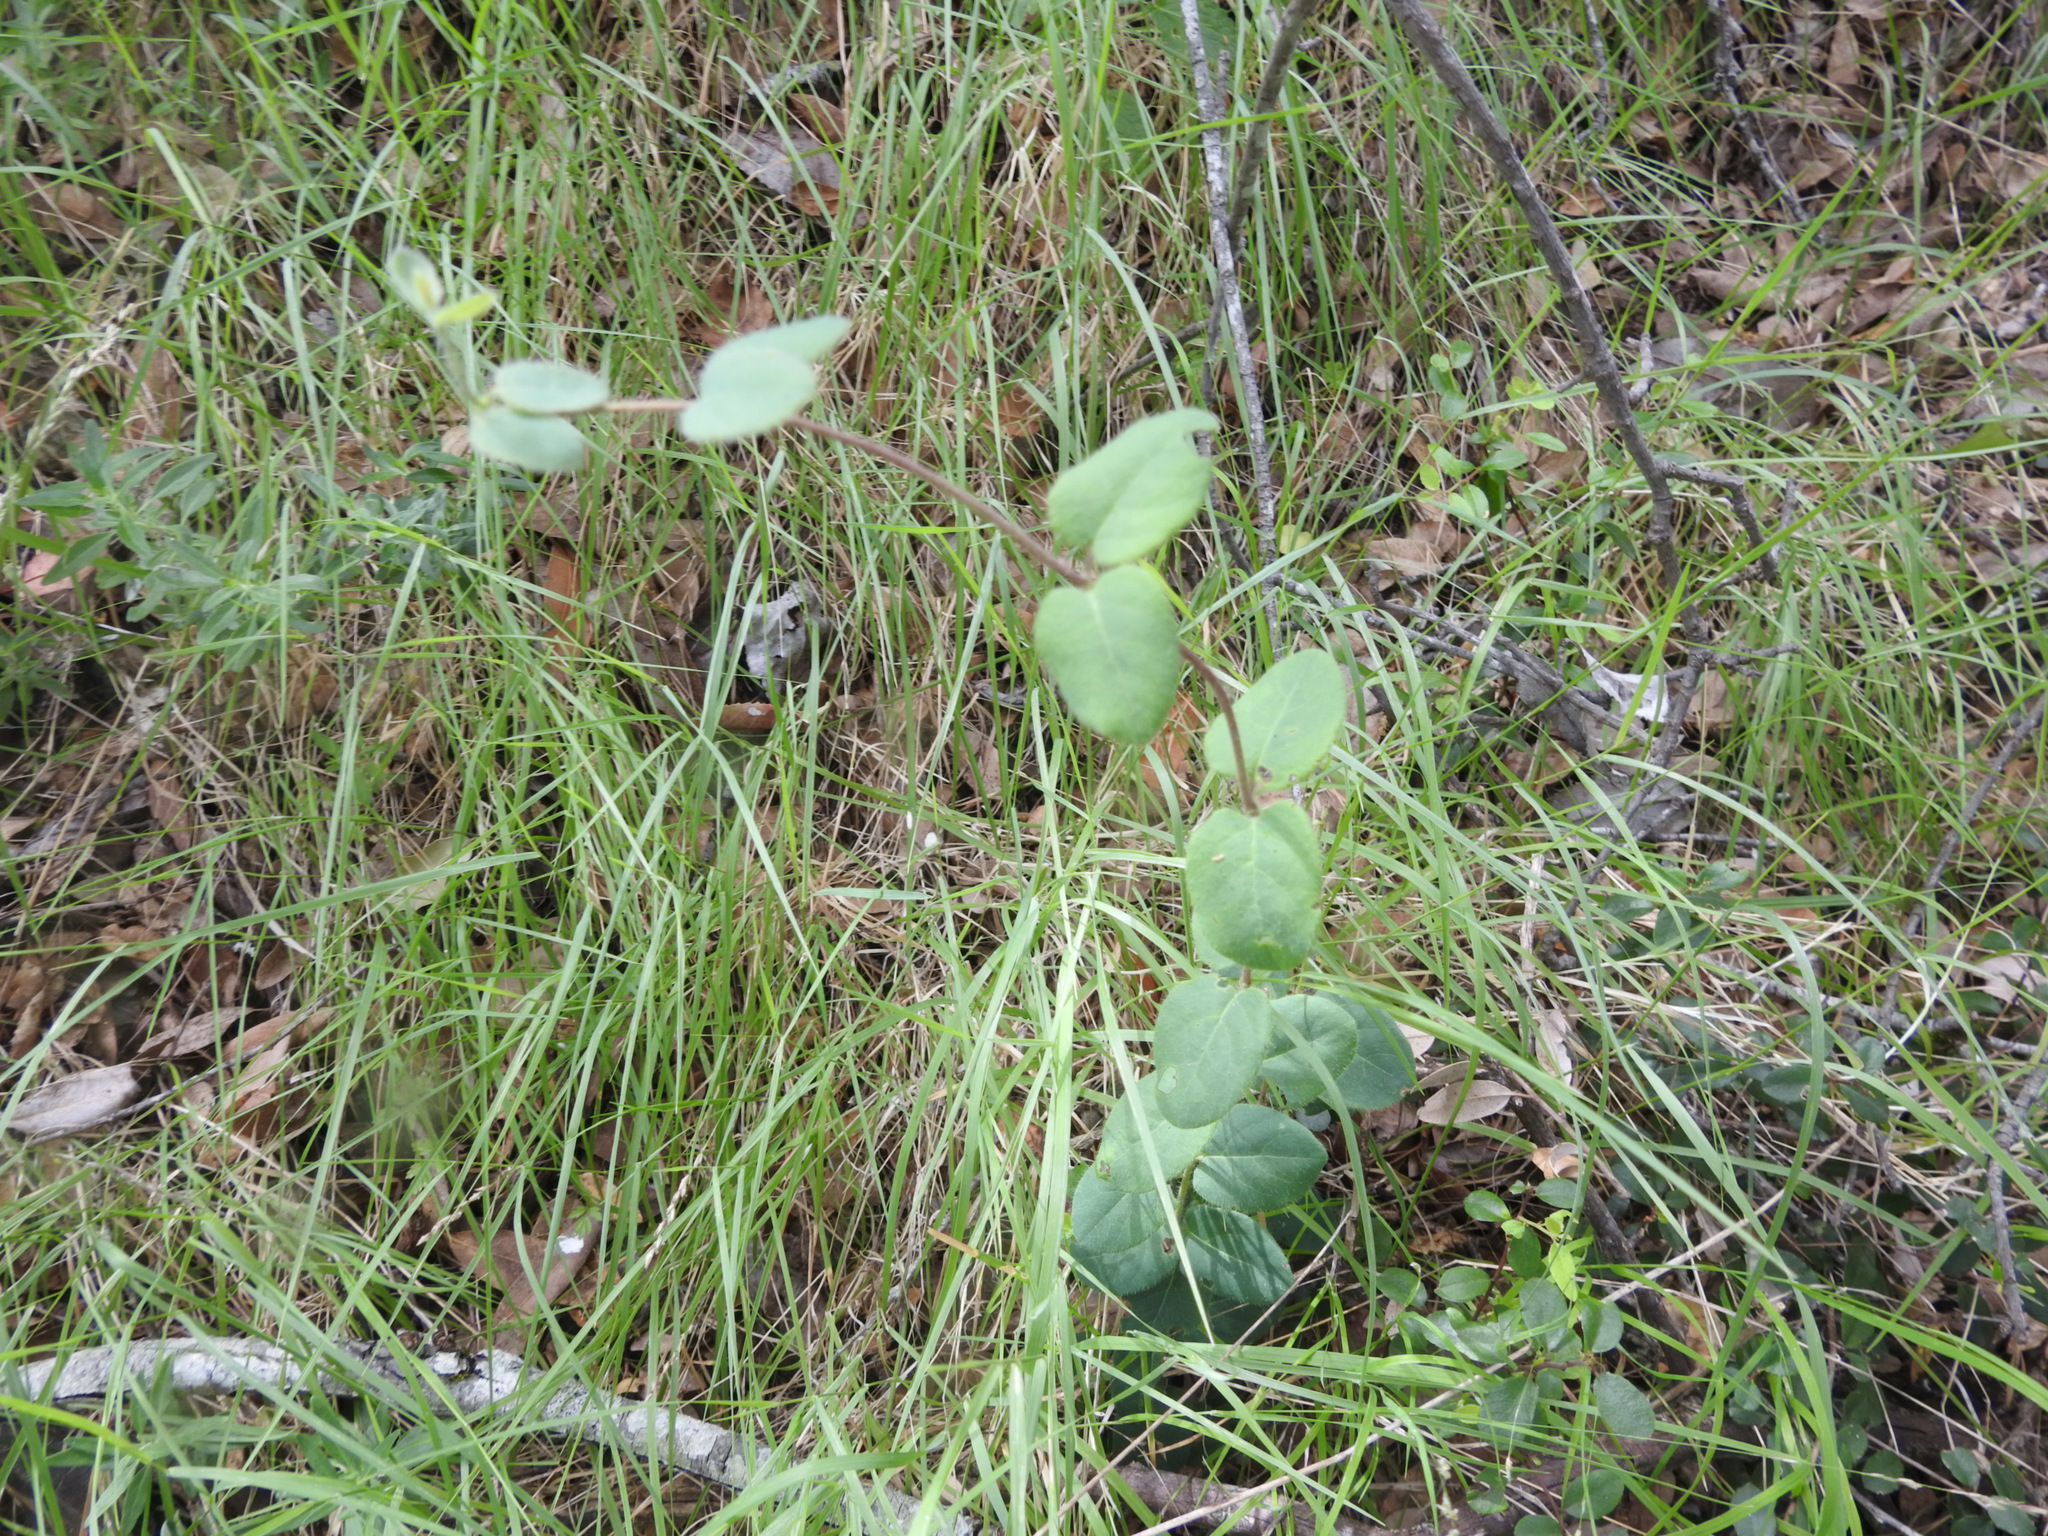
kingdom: Plantae
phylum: Tracheophyta
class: Magnoliopsida
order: Dipsacales
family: Caprifoliaceae
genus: Lonicera
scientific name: Lonicera hispidula
